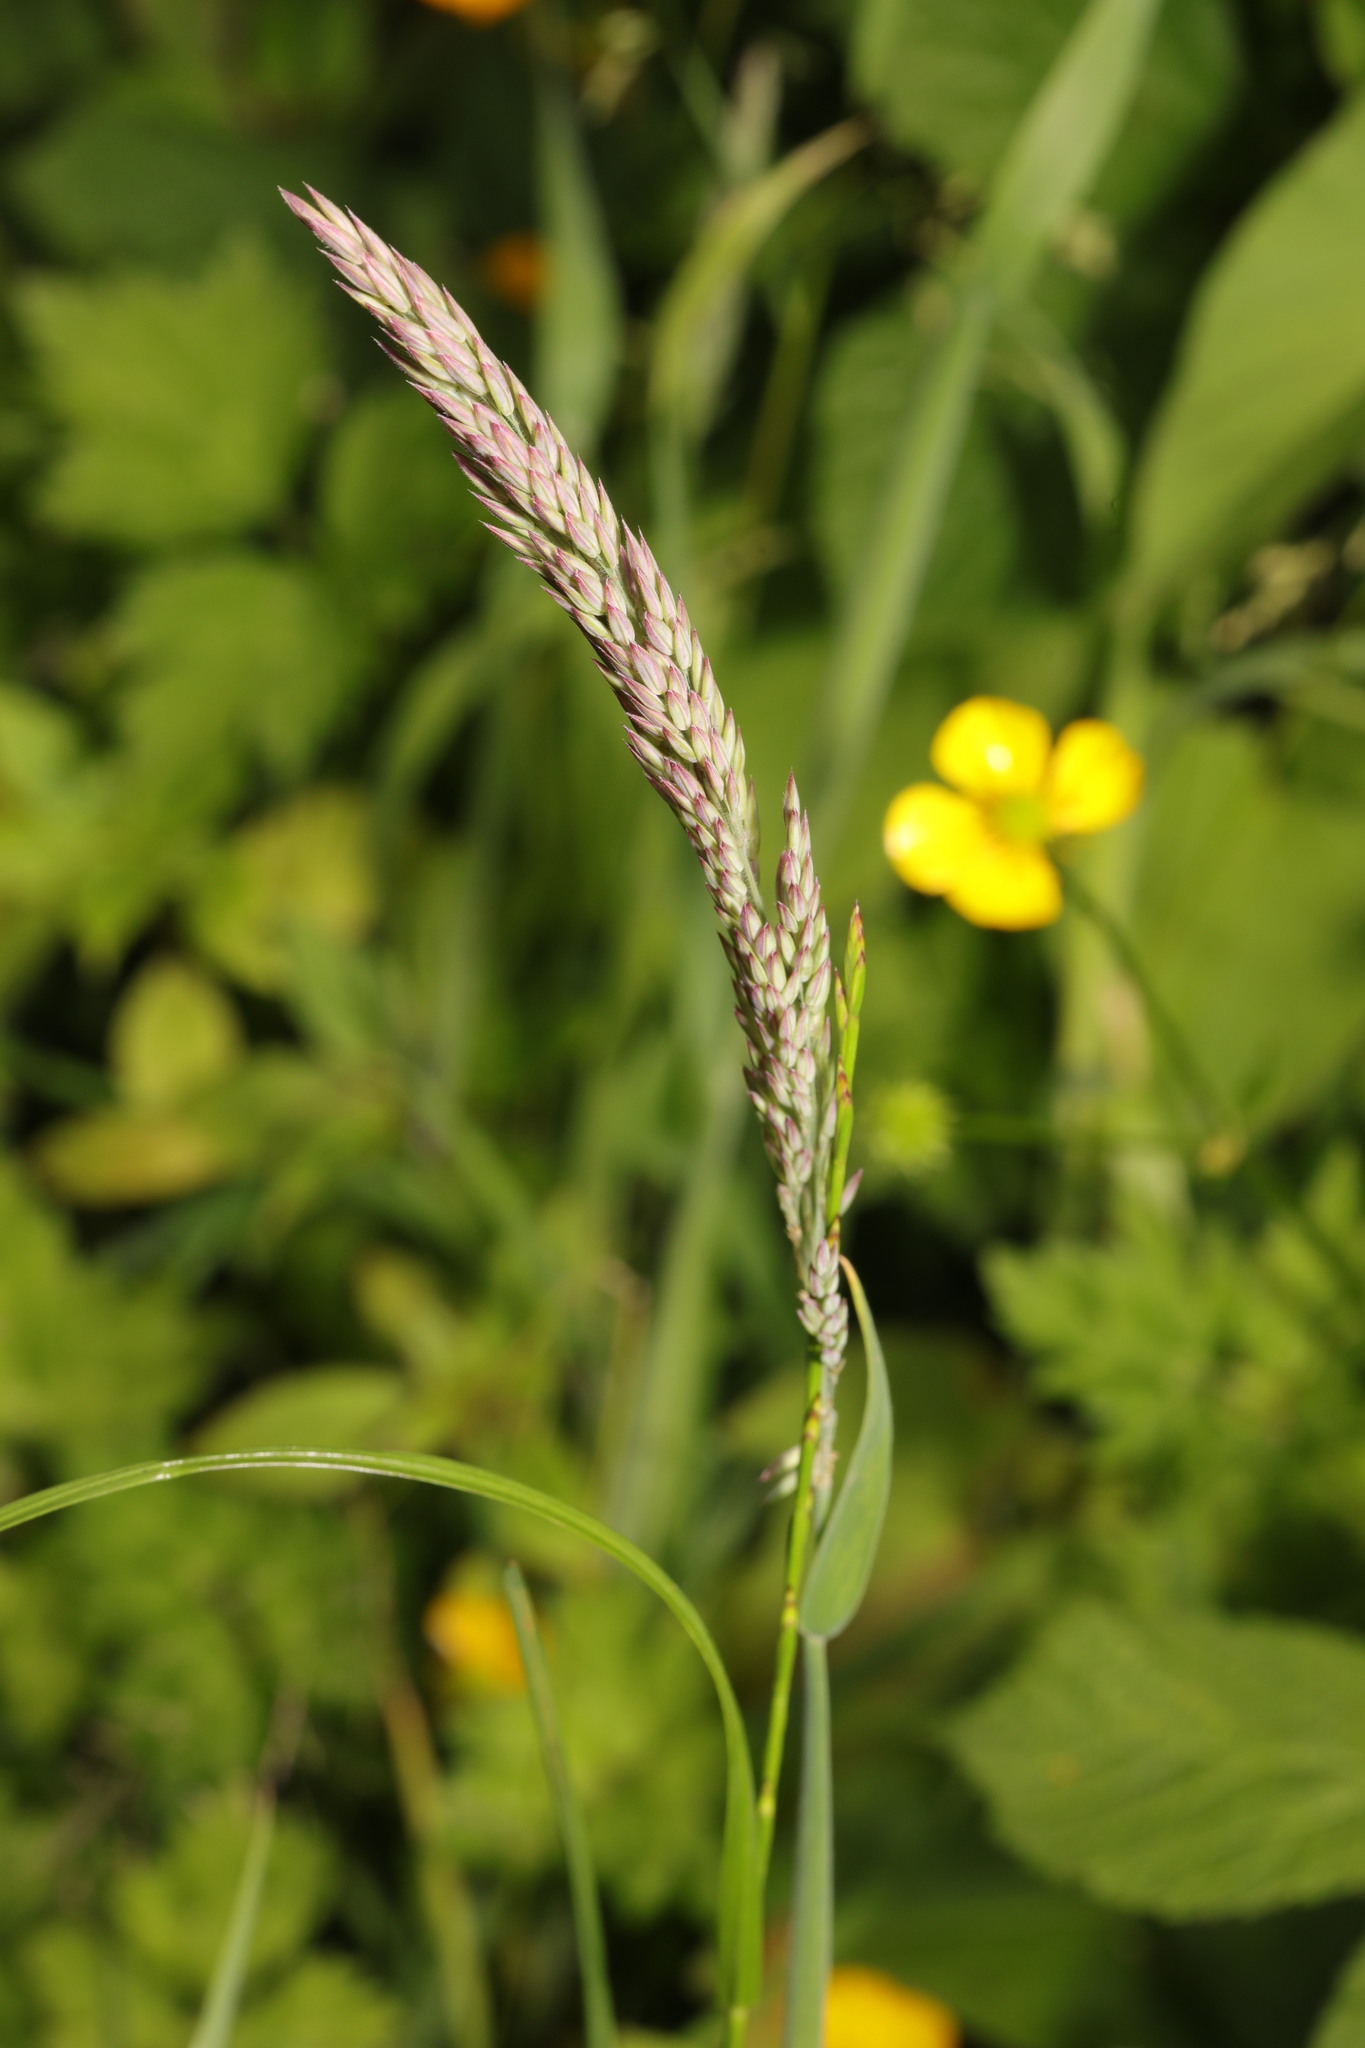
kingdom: Plantae
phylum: Tracheophyta
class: Liliopsida
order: Poales
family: Poaceae
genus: Holcus
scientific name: Holcus lanatus
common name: Yorkshire-fog
